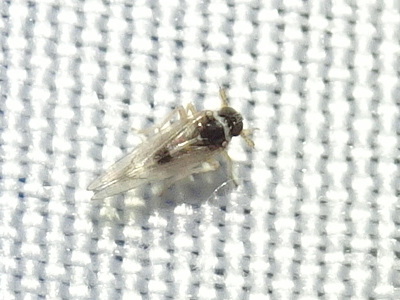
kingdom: Animalia
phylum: Arthropoda
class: Insecta
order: Hemiptera
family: Delphacidae
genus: Chionomus
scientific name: Chionomus
